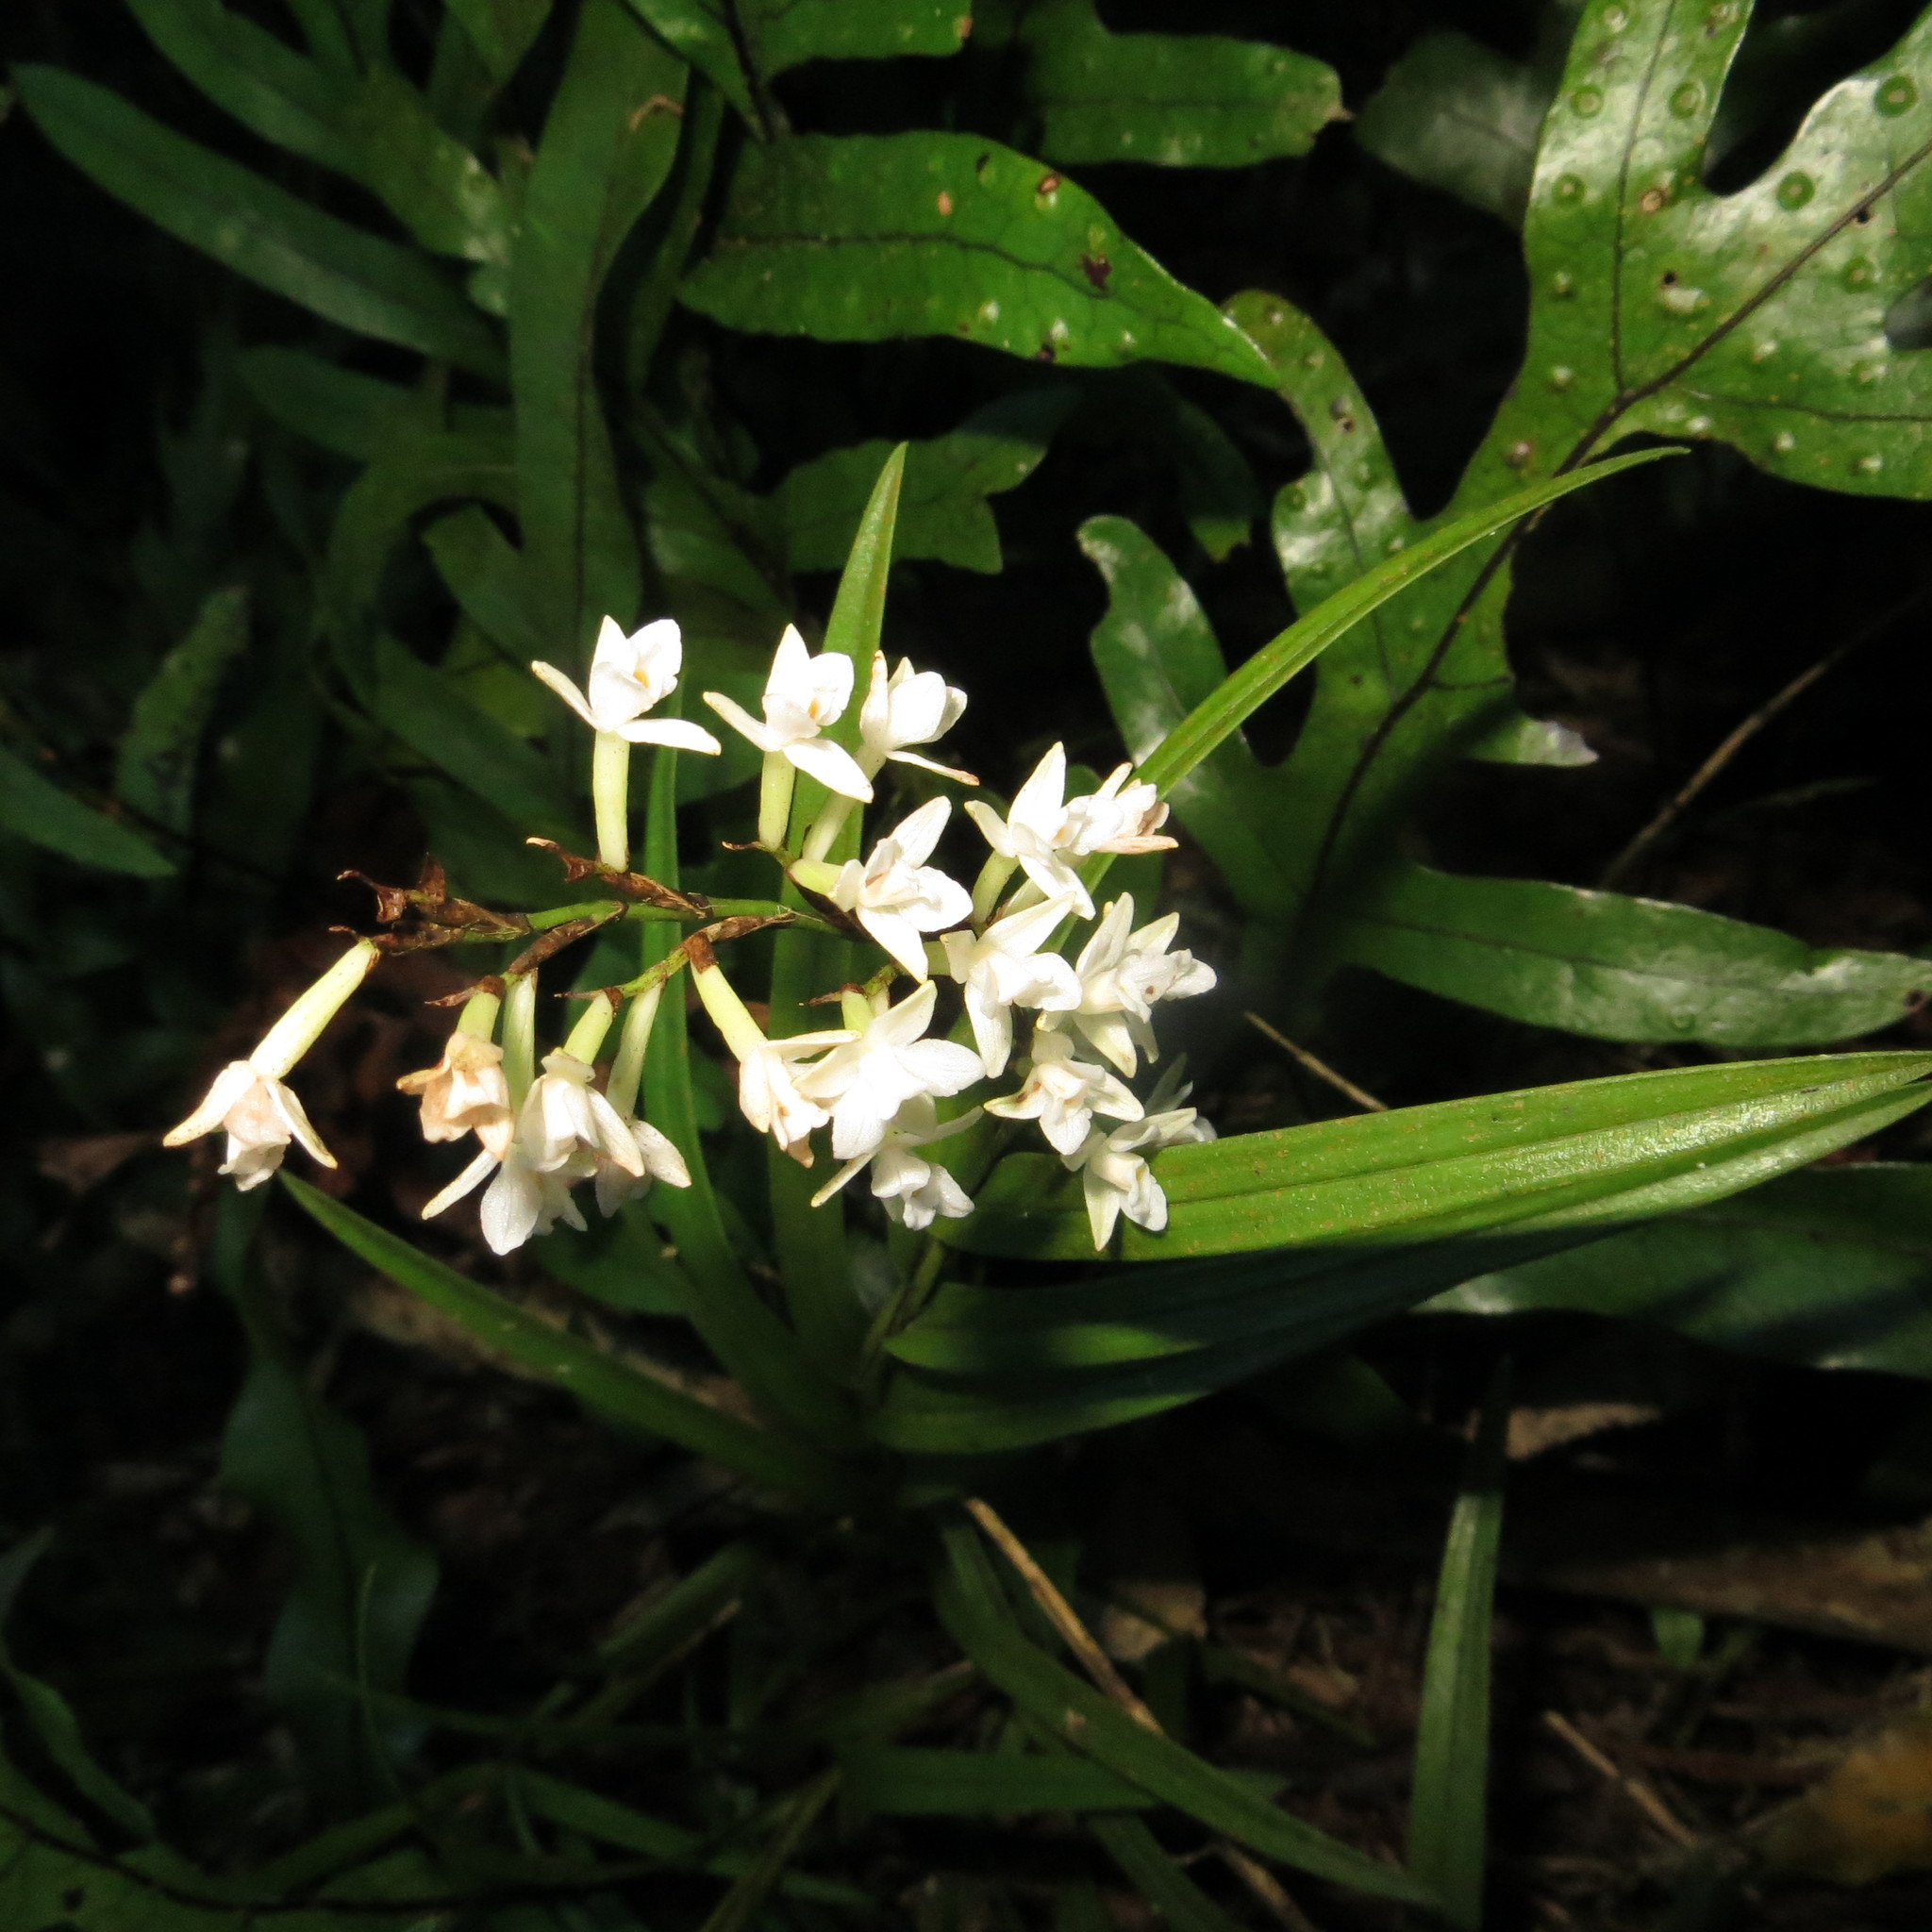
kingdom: Plantae
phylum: Tracheophyta
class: Liliopsida
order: Asparagales
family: Orchidaceae
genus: Earina
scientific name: Earina autumnalis
